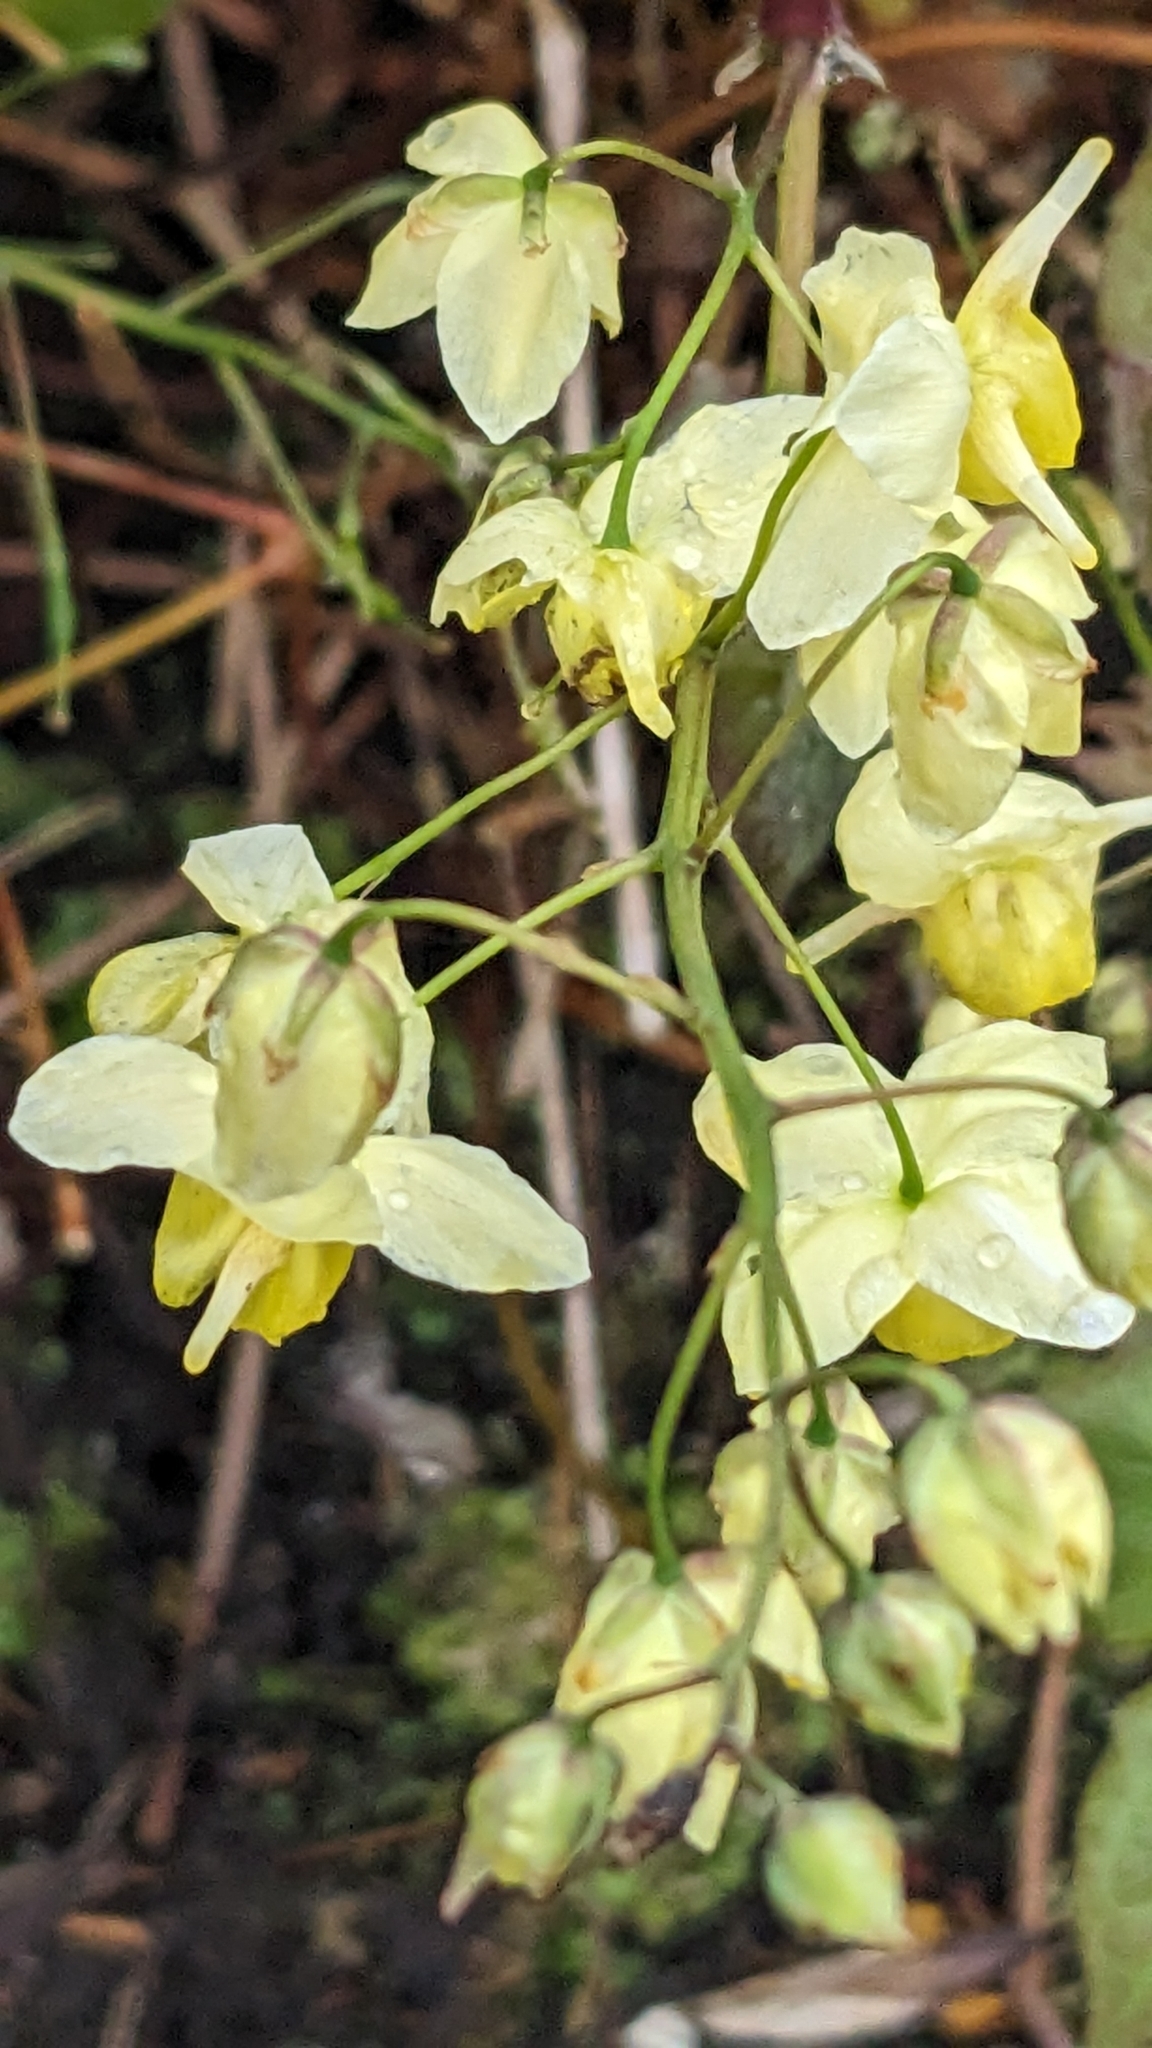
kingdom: Plantae
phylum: Tracheophyta
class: Magnoliopsida
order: Ranunculales
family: Berberidaceae
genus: Epimedium
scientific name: Epimedium versicolor
